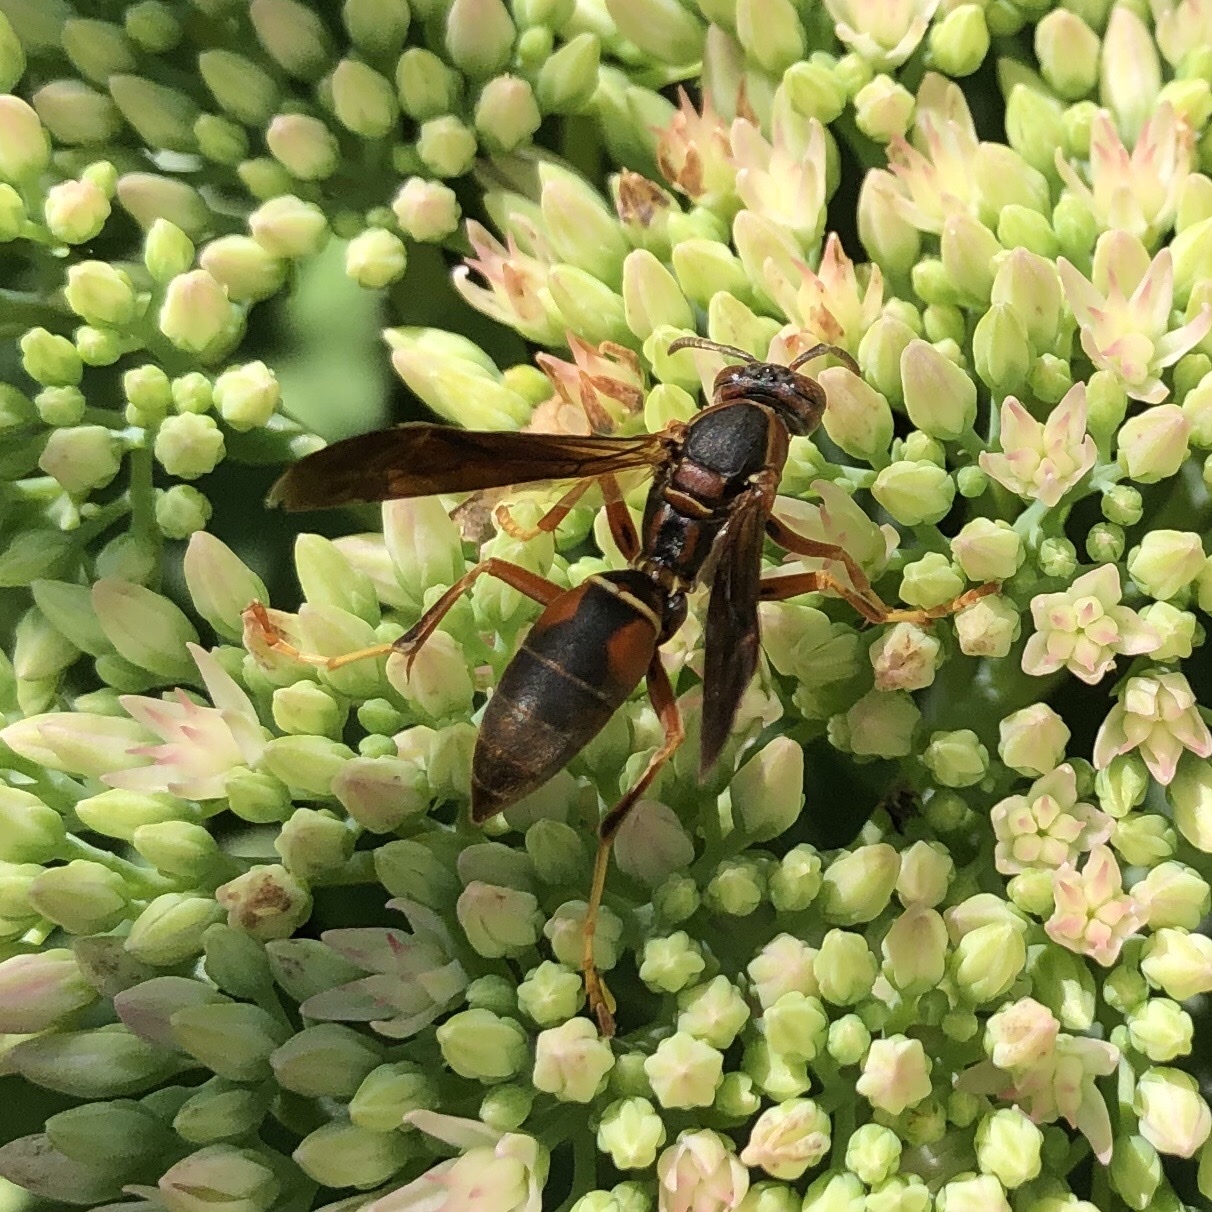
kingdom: Animalia
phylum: Arthropoda
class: Insecta
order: Hymenoptera
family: Eumenidae
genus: Polistes
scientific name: Polistes fuscatus
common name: Dark paper wasp
